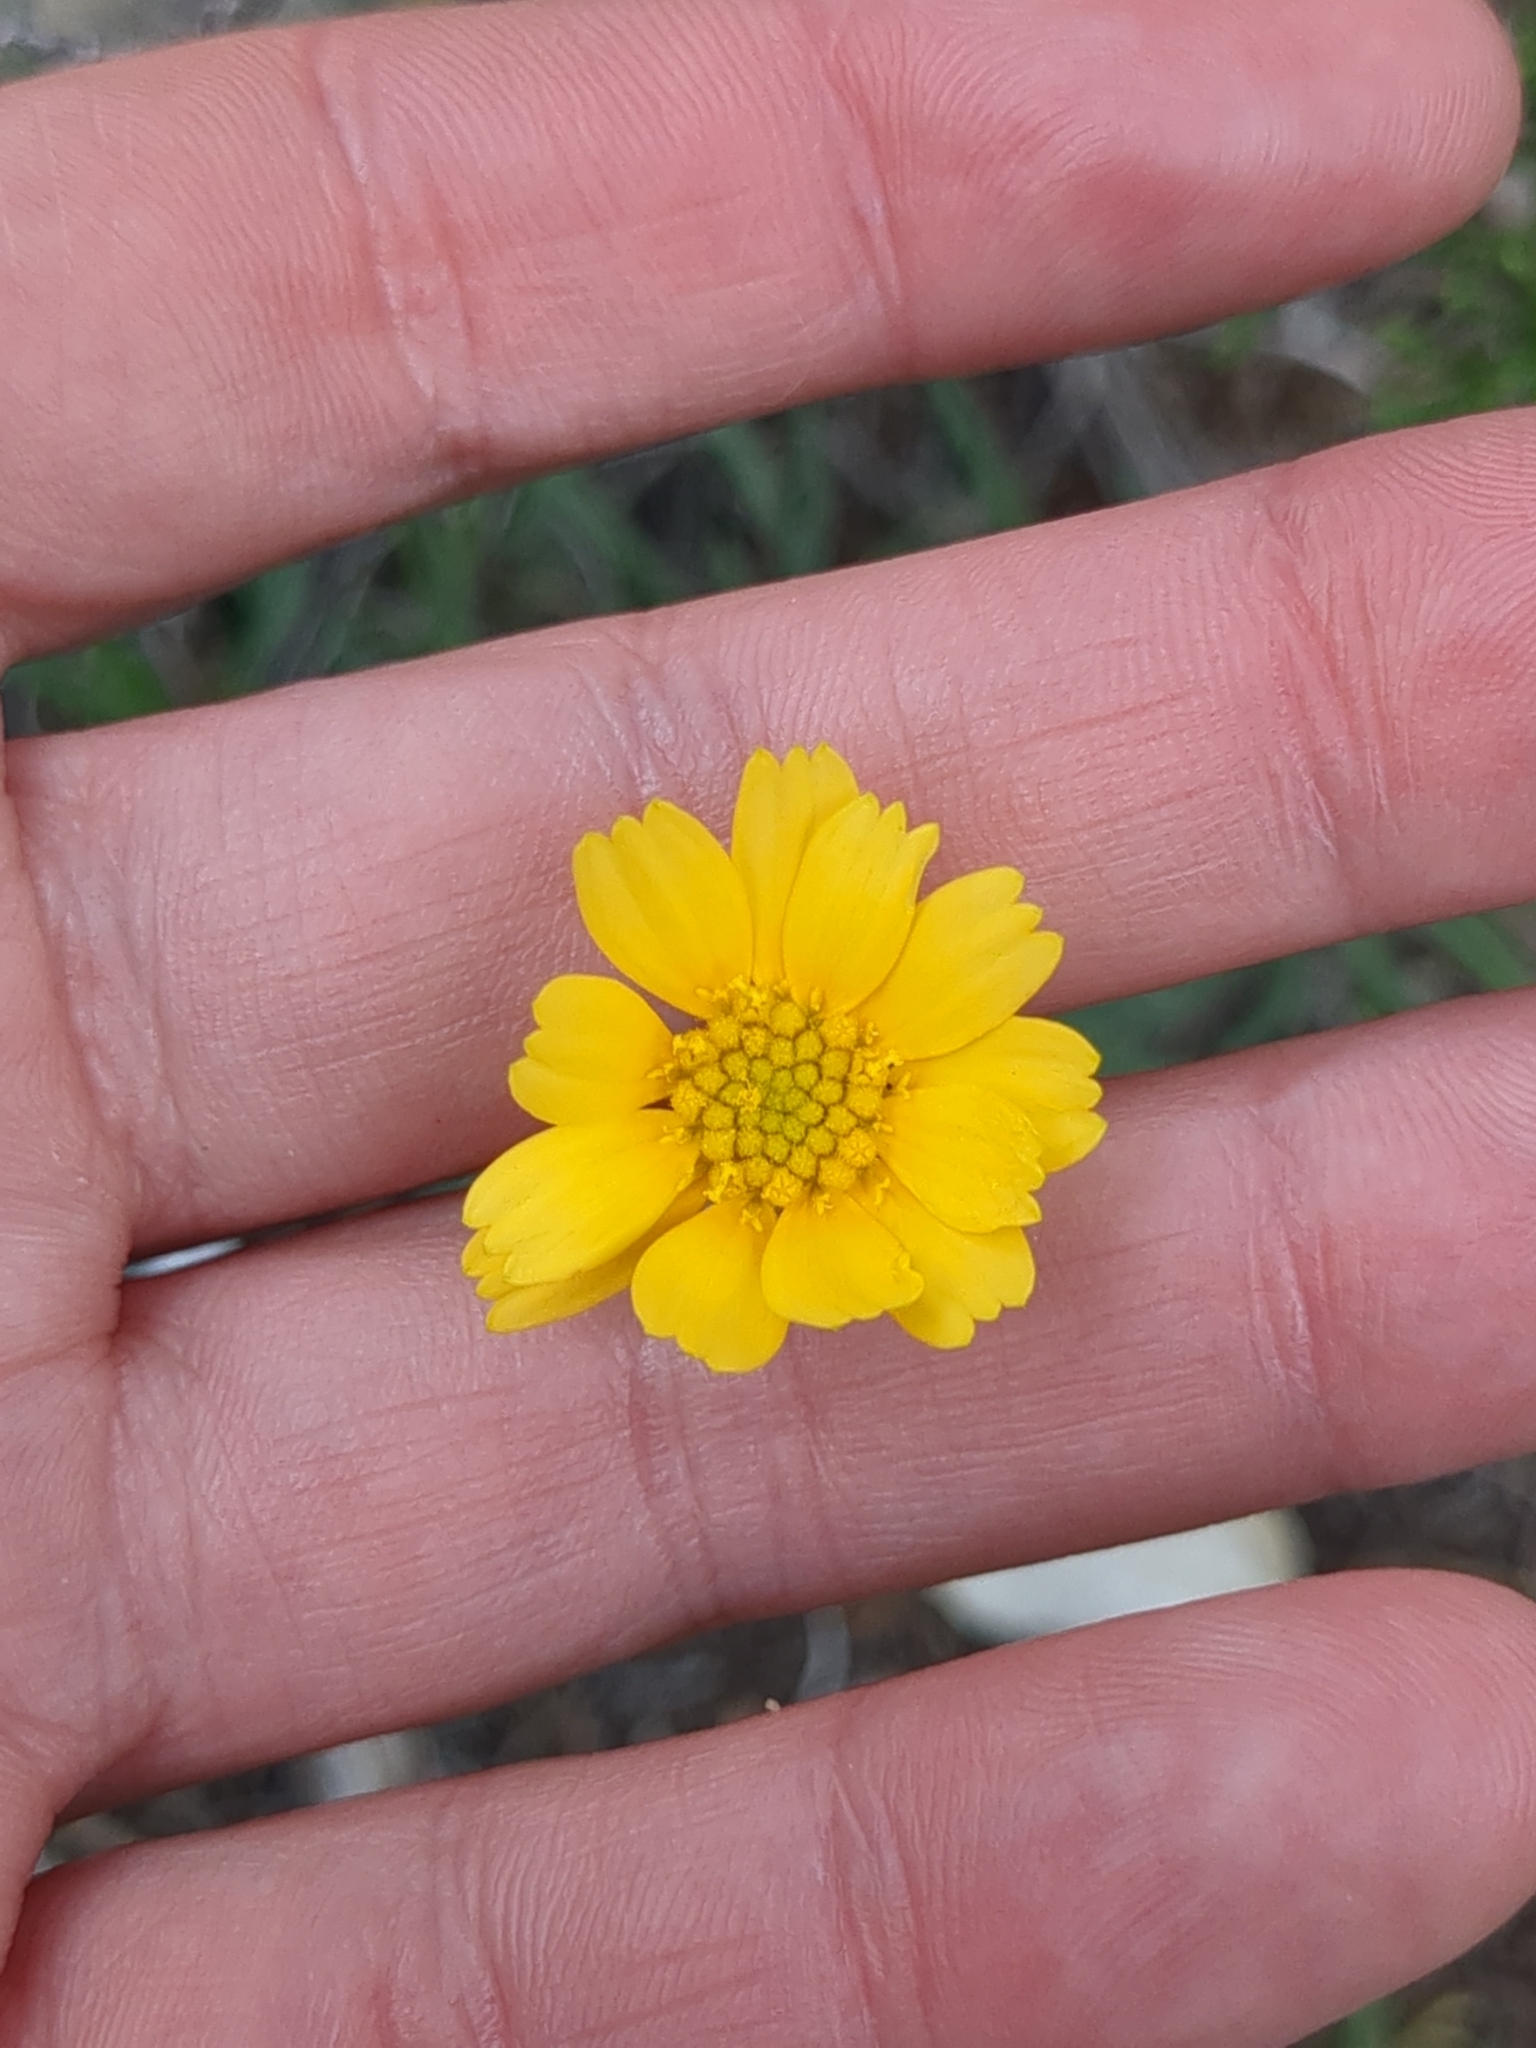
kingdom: Plantae
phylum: Tracheophyta
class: Magnoliopsida
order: Asterales
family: Asteraceae
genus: Tetraneuris
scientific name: Tetraneuris scaposa
